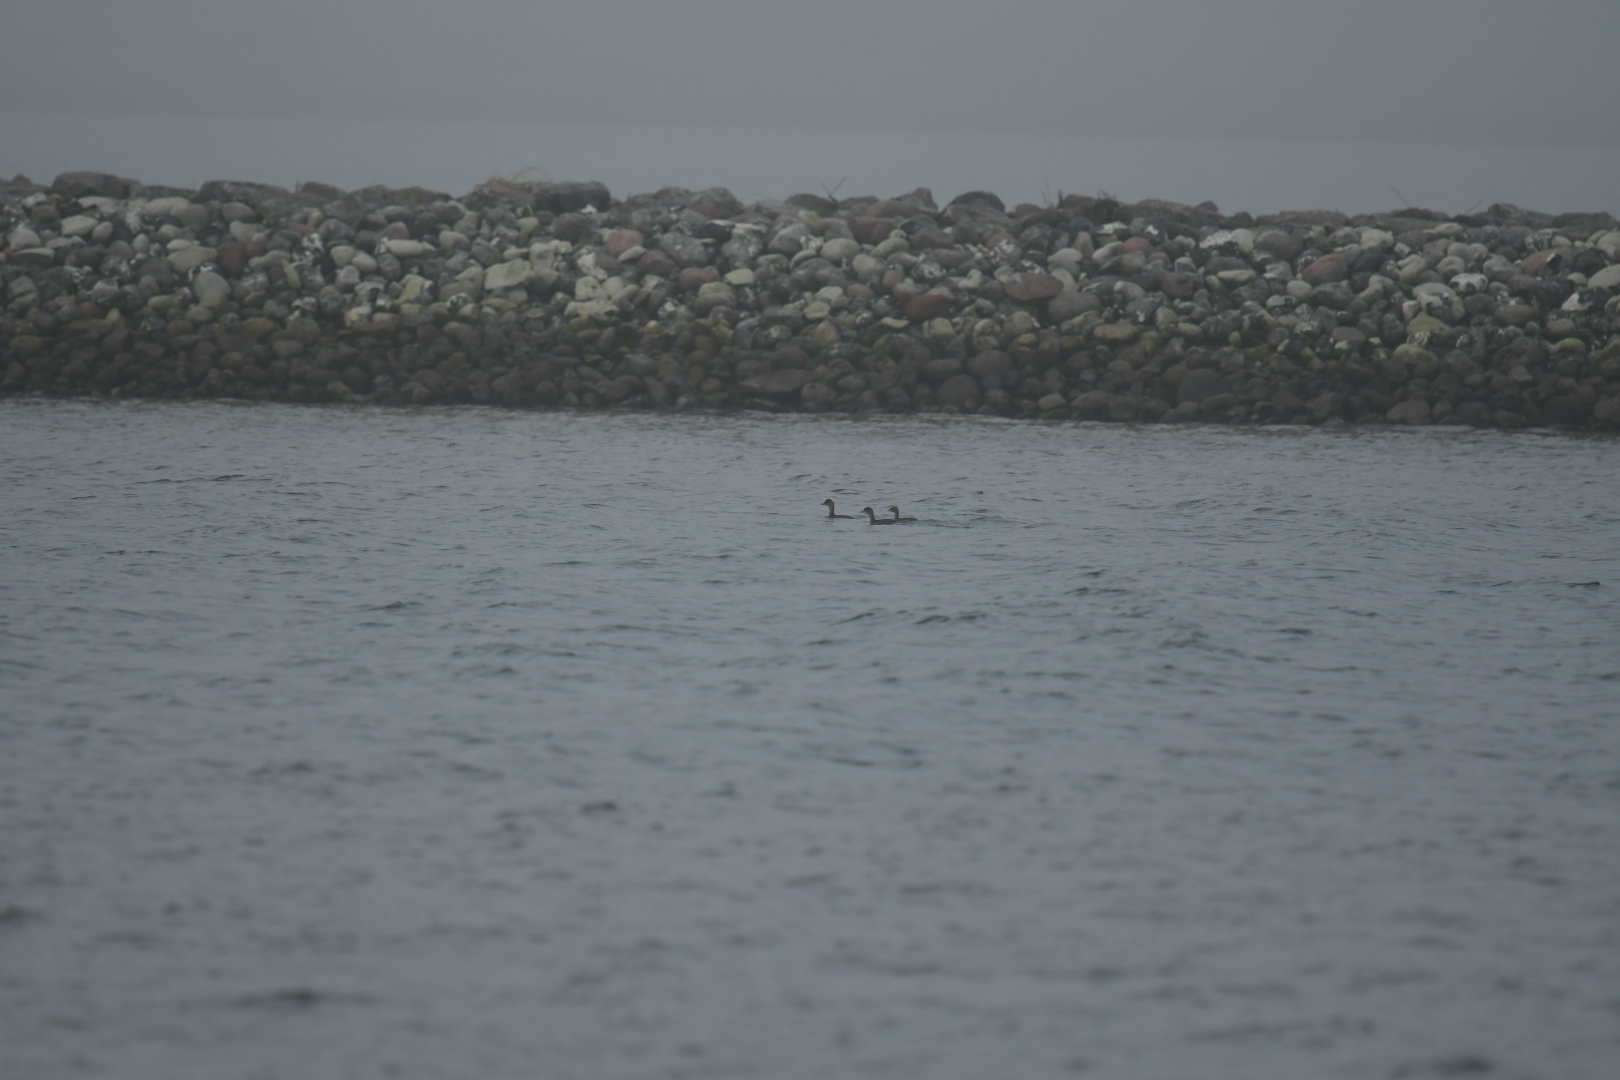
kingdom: Animalia
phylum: Chordata
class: Aves
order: Podicipediformes
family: Podicipedidae
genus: Tachybaptus
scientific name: Tachybaptus ruficollis
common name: Little grebe
